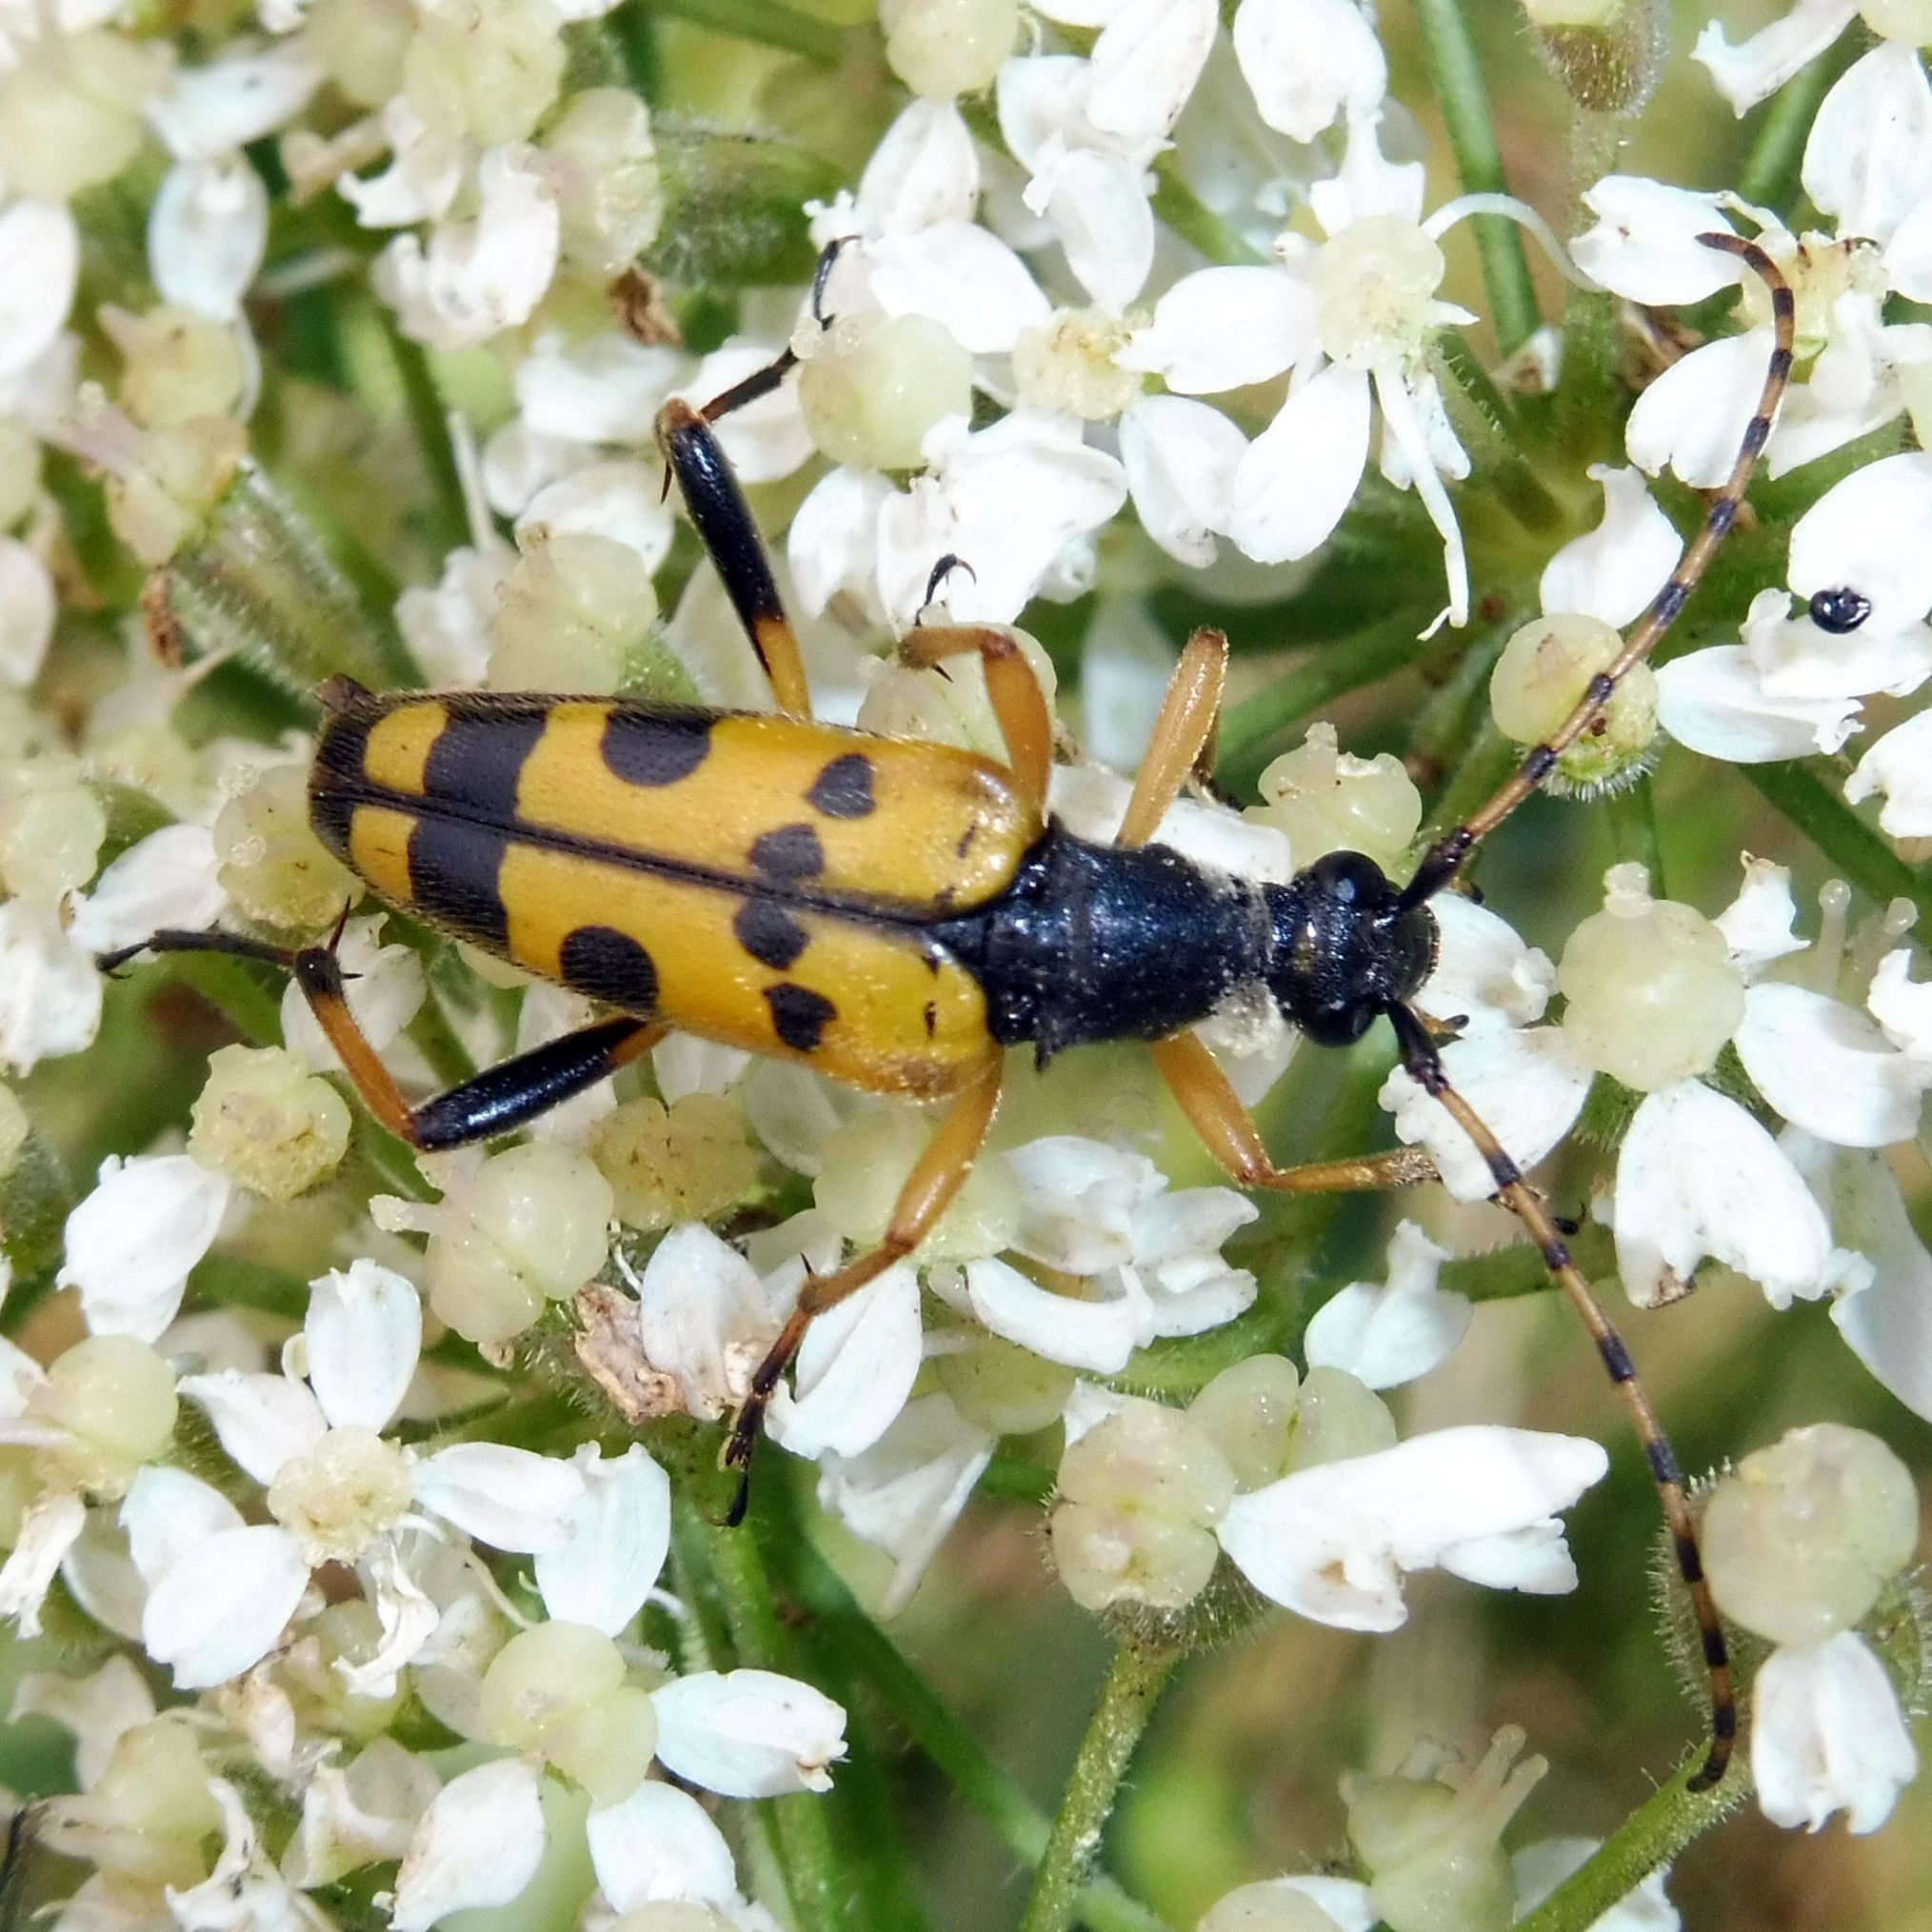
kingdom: Animalia
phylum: Arthropoda
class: Insecta
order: Coleoptera
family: Cerambycidae
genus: Rutpela
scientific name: Rutpela maculata
